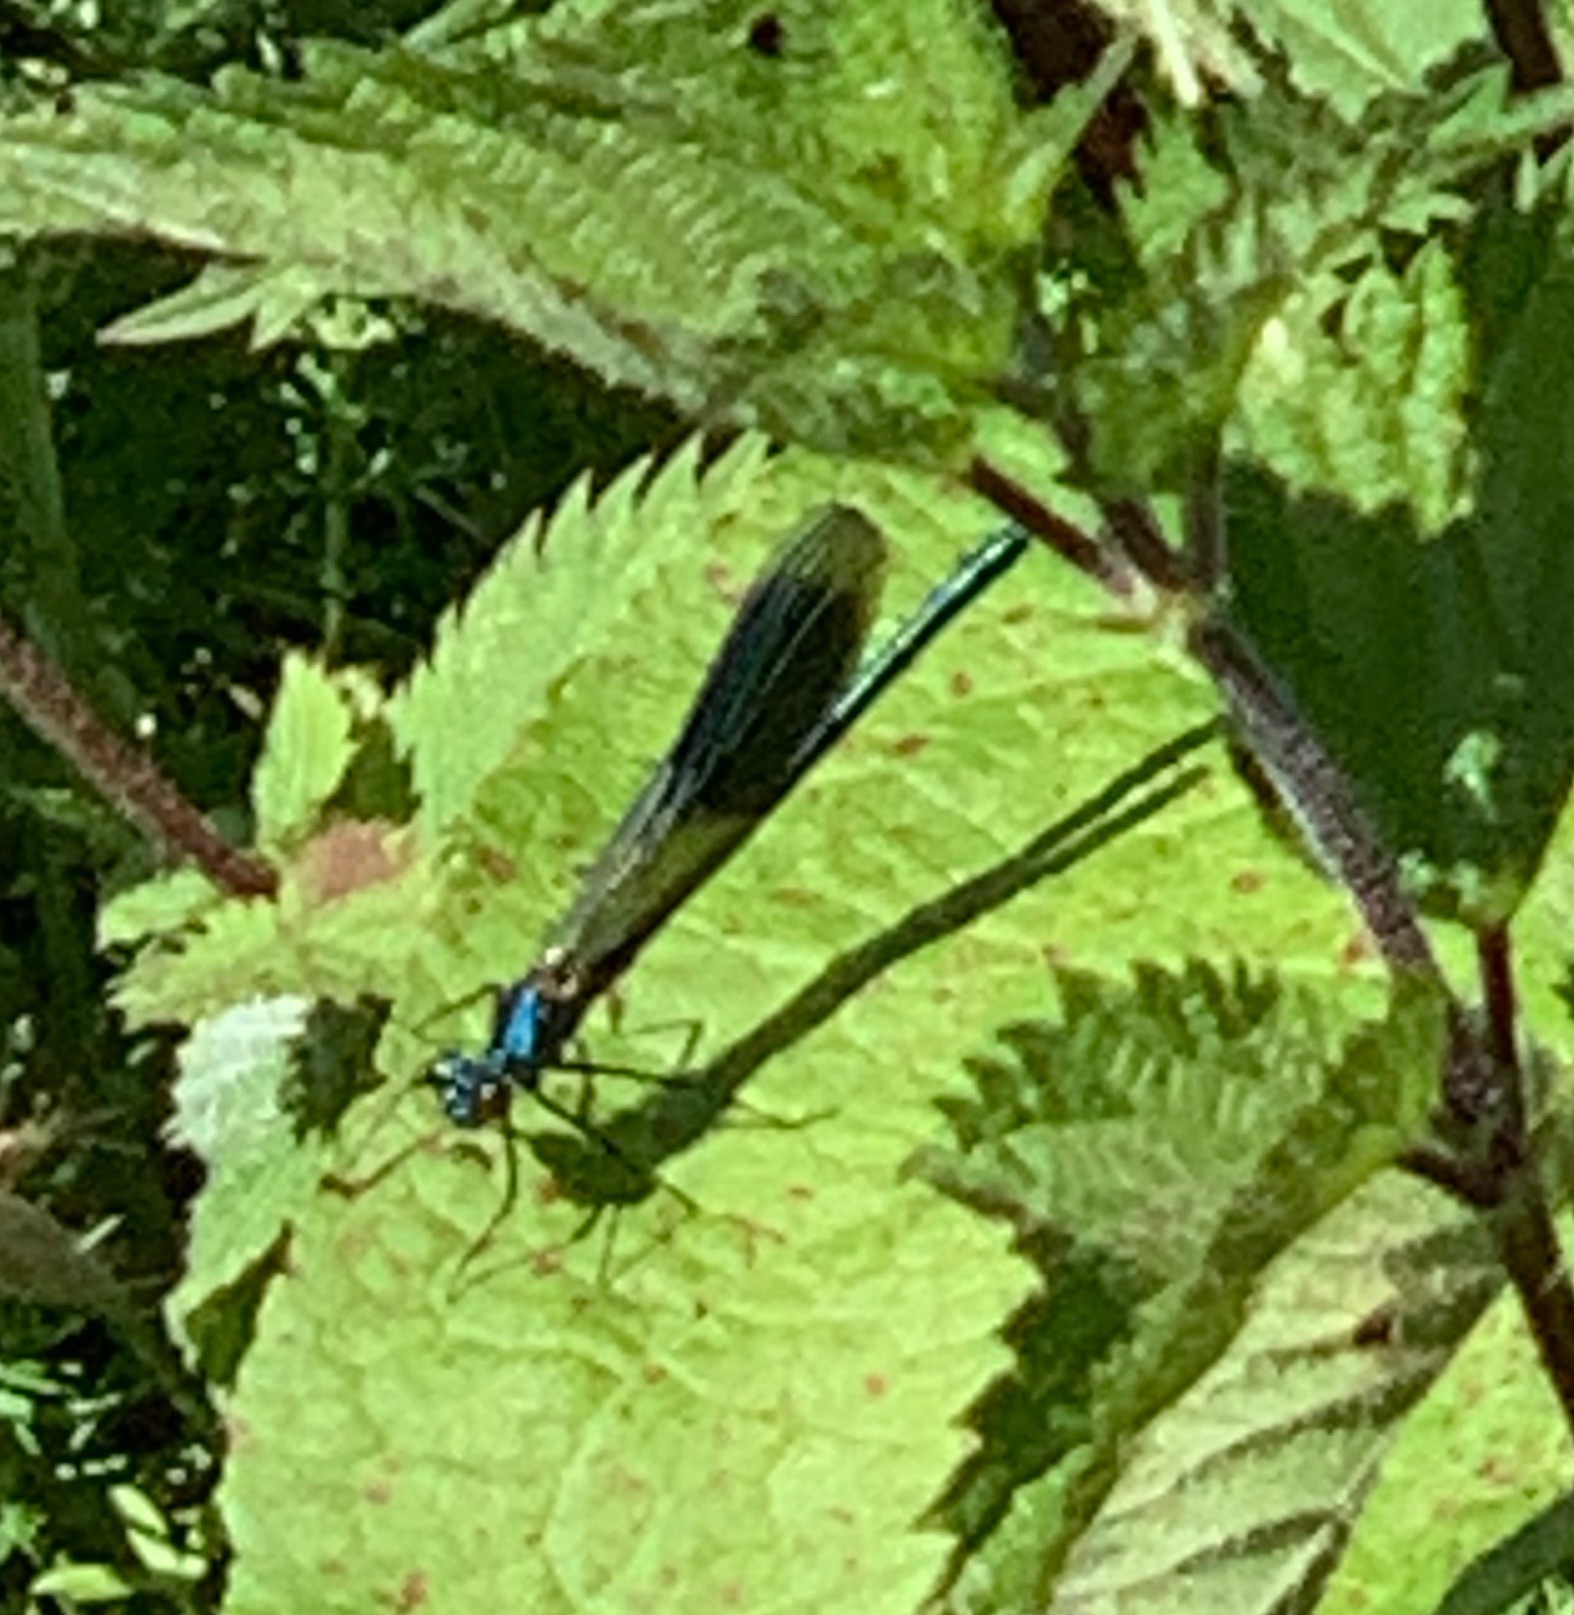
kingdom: Animalia
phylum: Arthropoda
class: Insecta
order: Odonata
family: Calopterygidae
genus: Calopteryx
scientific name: Calopteryx splendens
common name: Banded demoiselle
